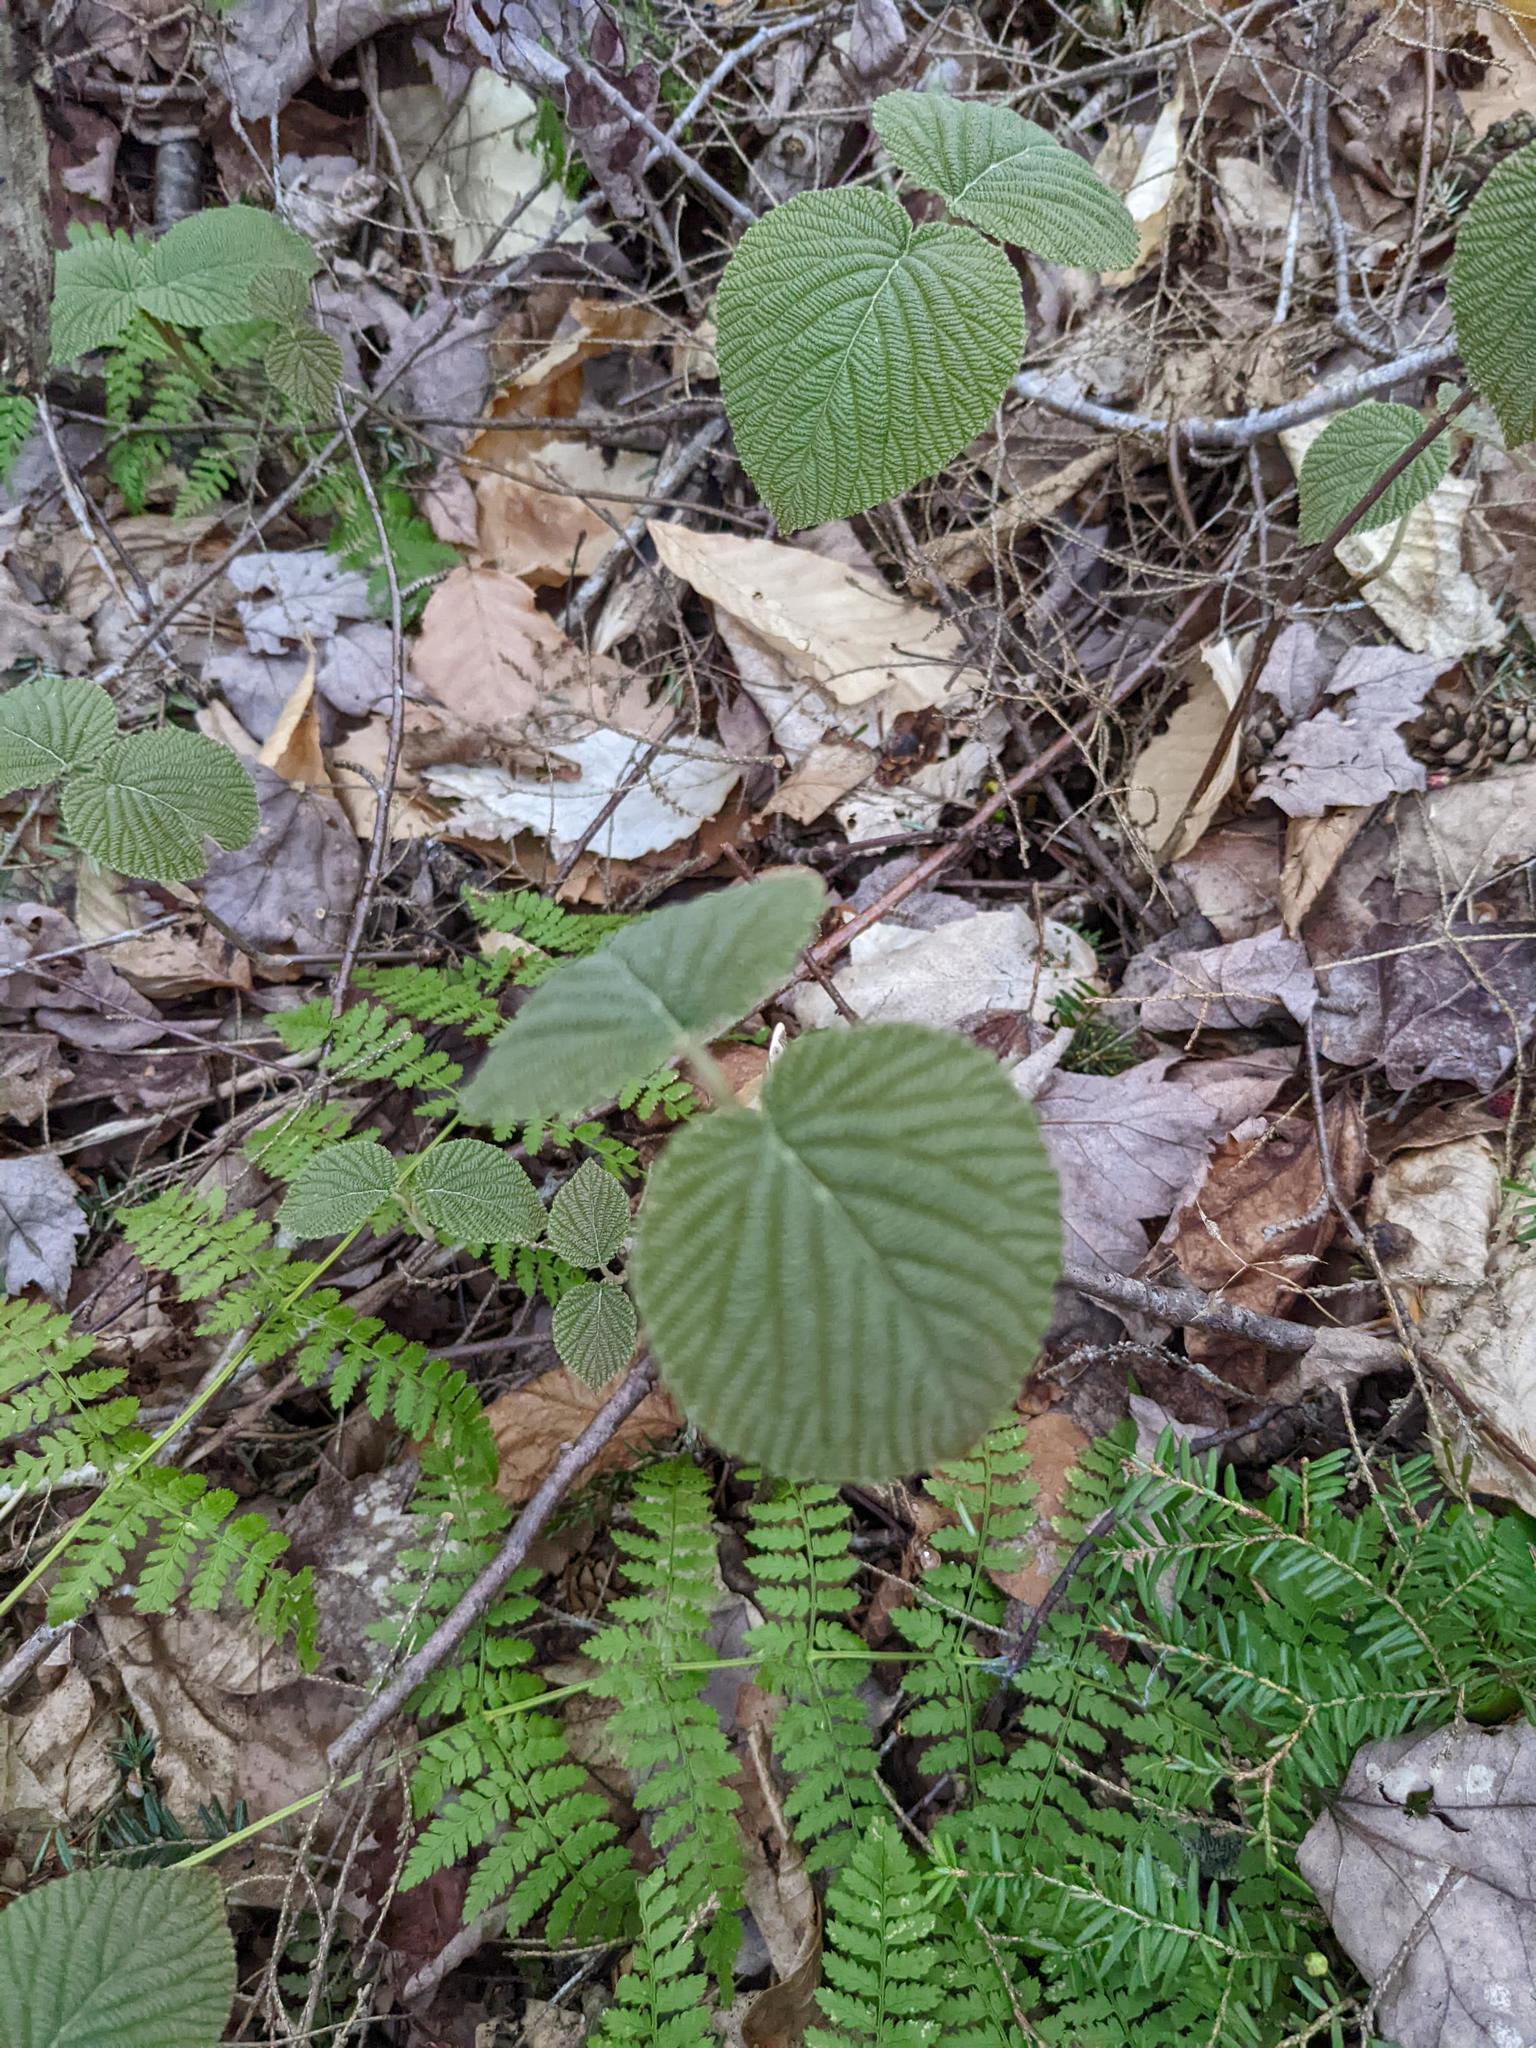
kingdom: Plantae
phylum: Tracheophyta
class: Magnoliopsida
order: Dipsacales
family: Viburnaceae
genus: Viburnum
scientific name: Viburnum lantanoides
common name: Hobblebush
